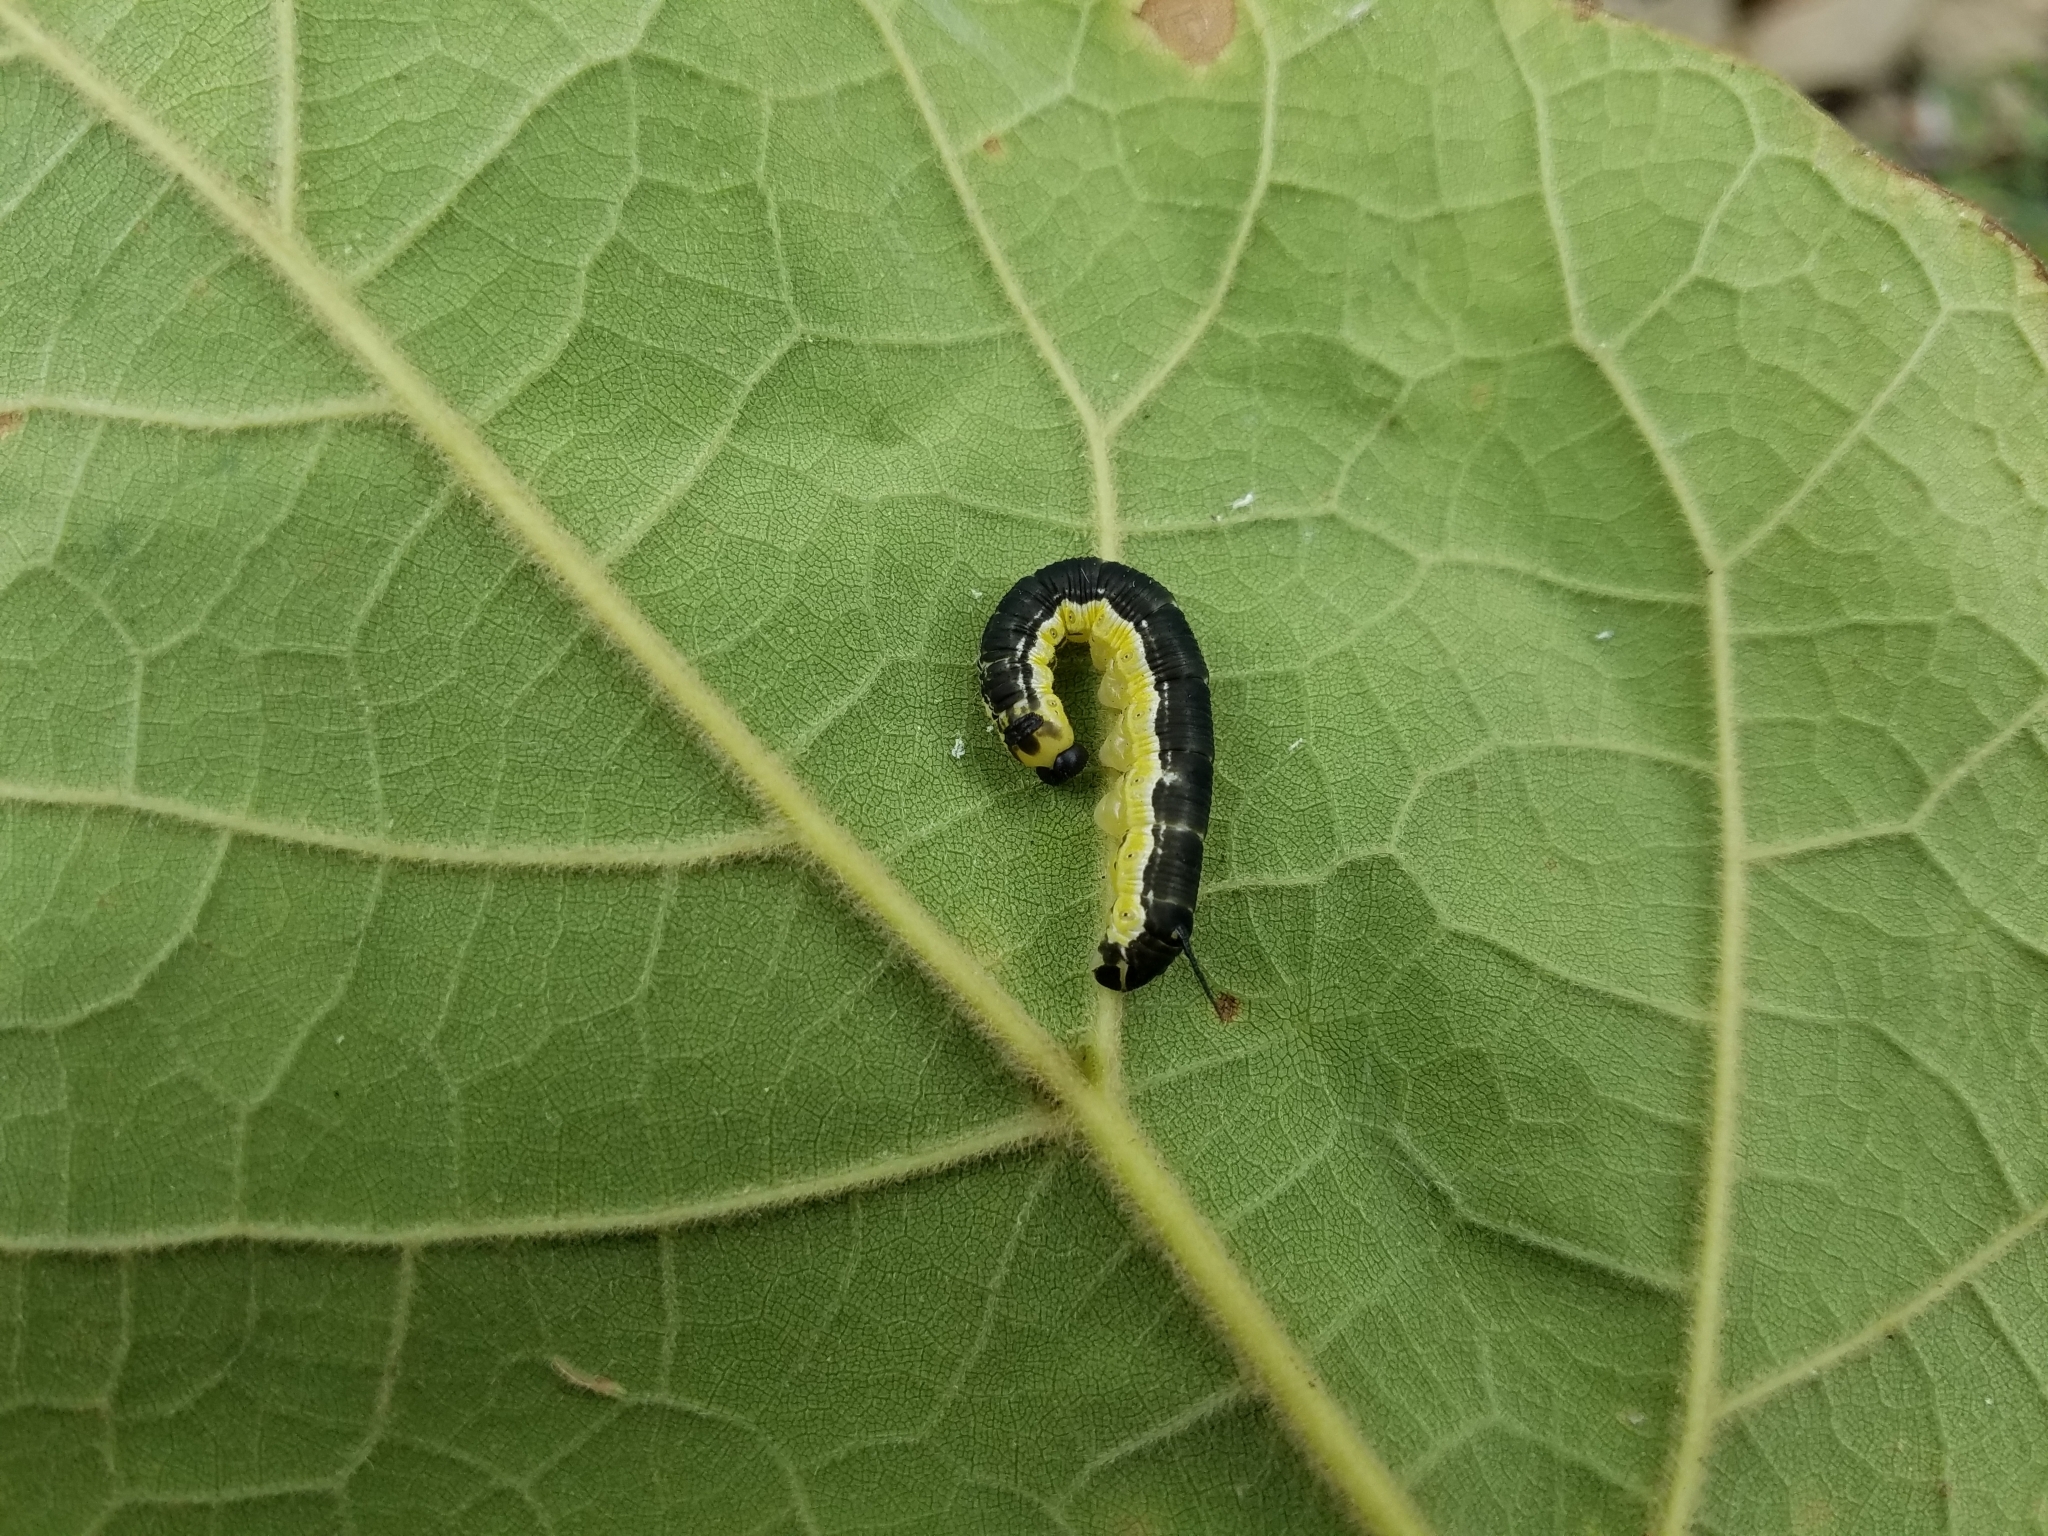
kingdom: Animalia
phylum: Arthropoda
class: Insecta
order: Lepidoptera
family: Sphingidae
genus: Ceratomia
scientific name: Ceratomia catalpae
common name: Catalpa hornworm
